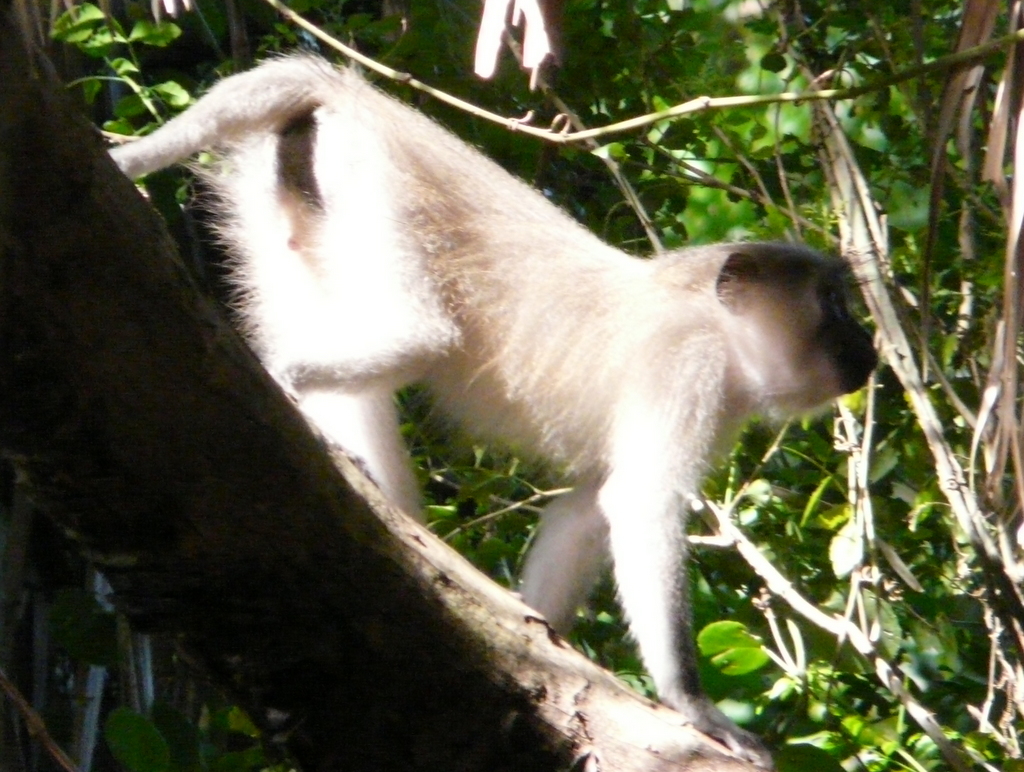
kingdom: Animalia
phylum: Chordata
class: Mammalia
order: Primates
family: Cercopithecidae
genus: Cercocebus
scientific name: Cercocebus galeritus
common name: Tana river mangabey
